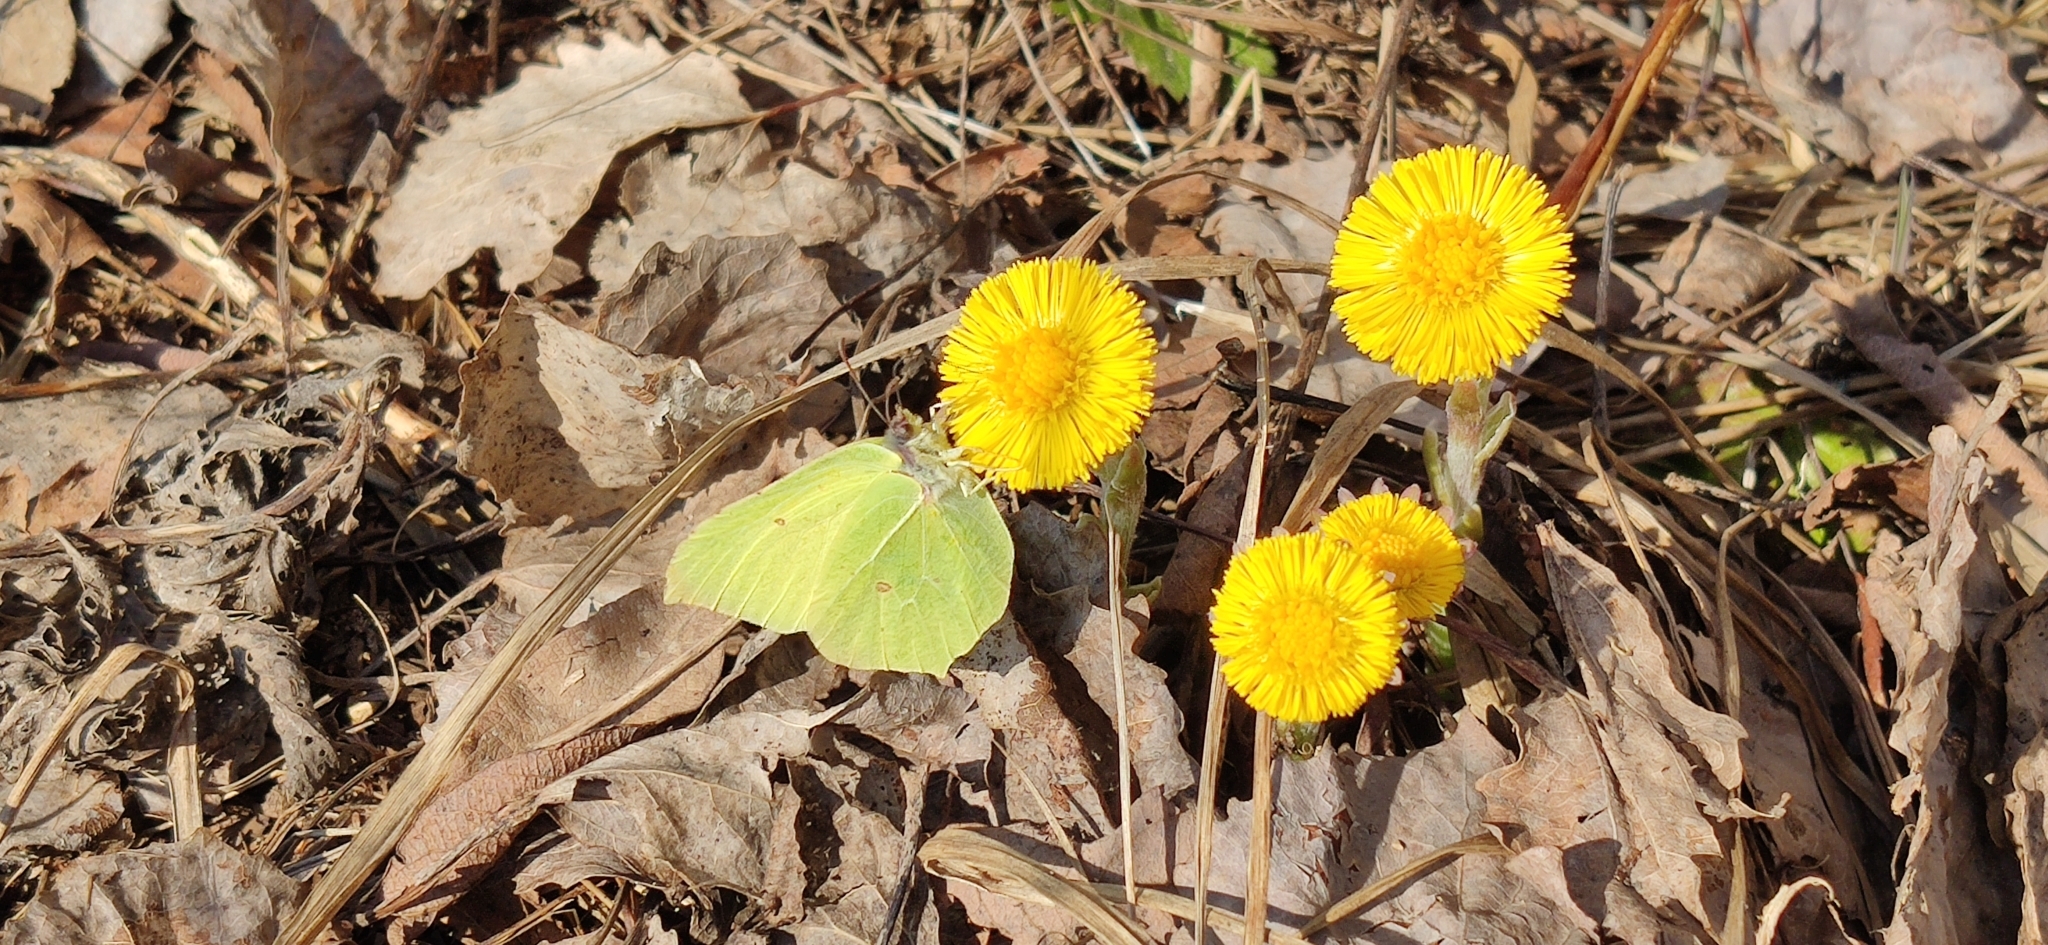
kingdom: Animalia
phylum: Arthropoda
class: Insecta
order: Lepidoptera
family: Pieridae
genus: Gonepteryx
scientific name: Gonepteryx rhamni
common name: Brimstone
